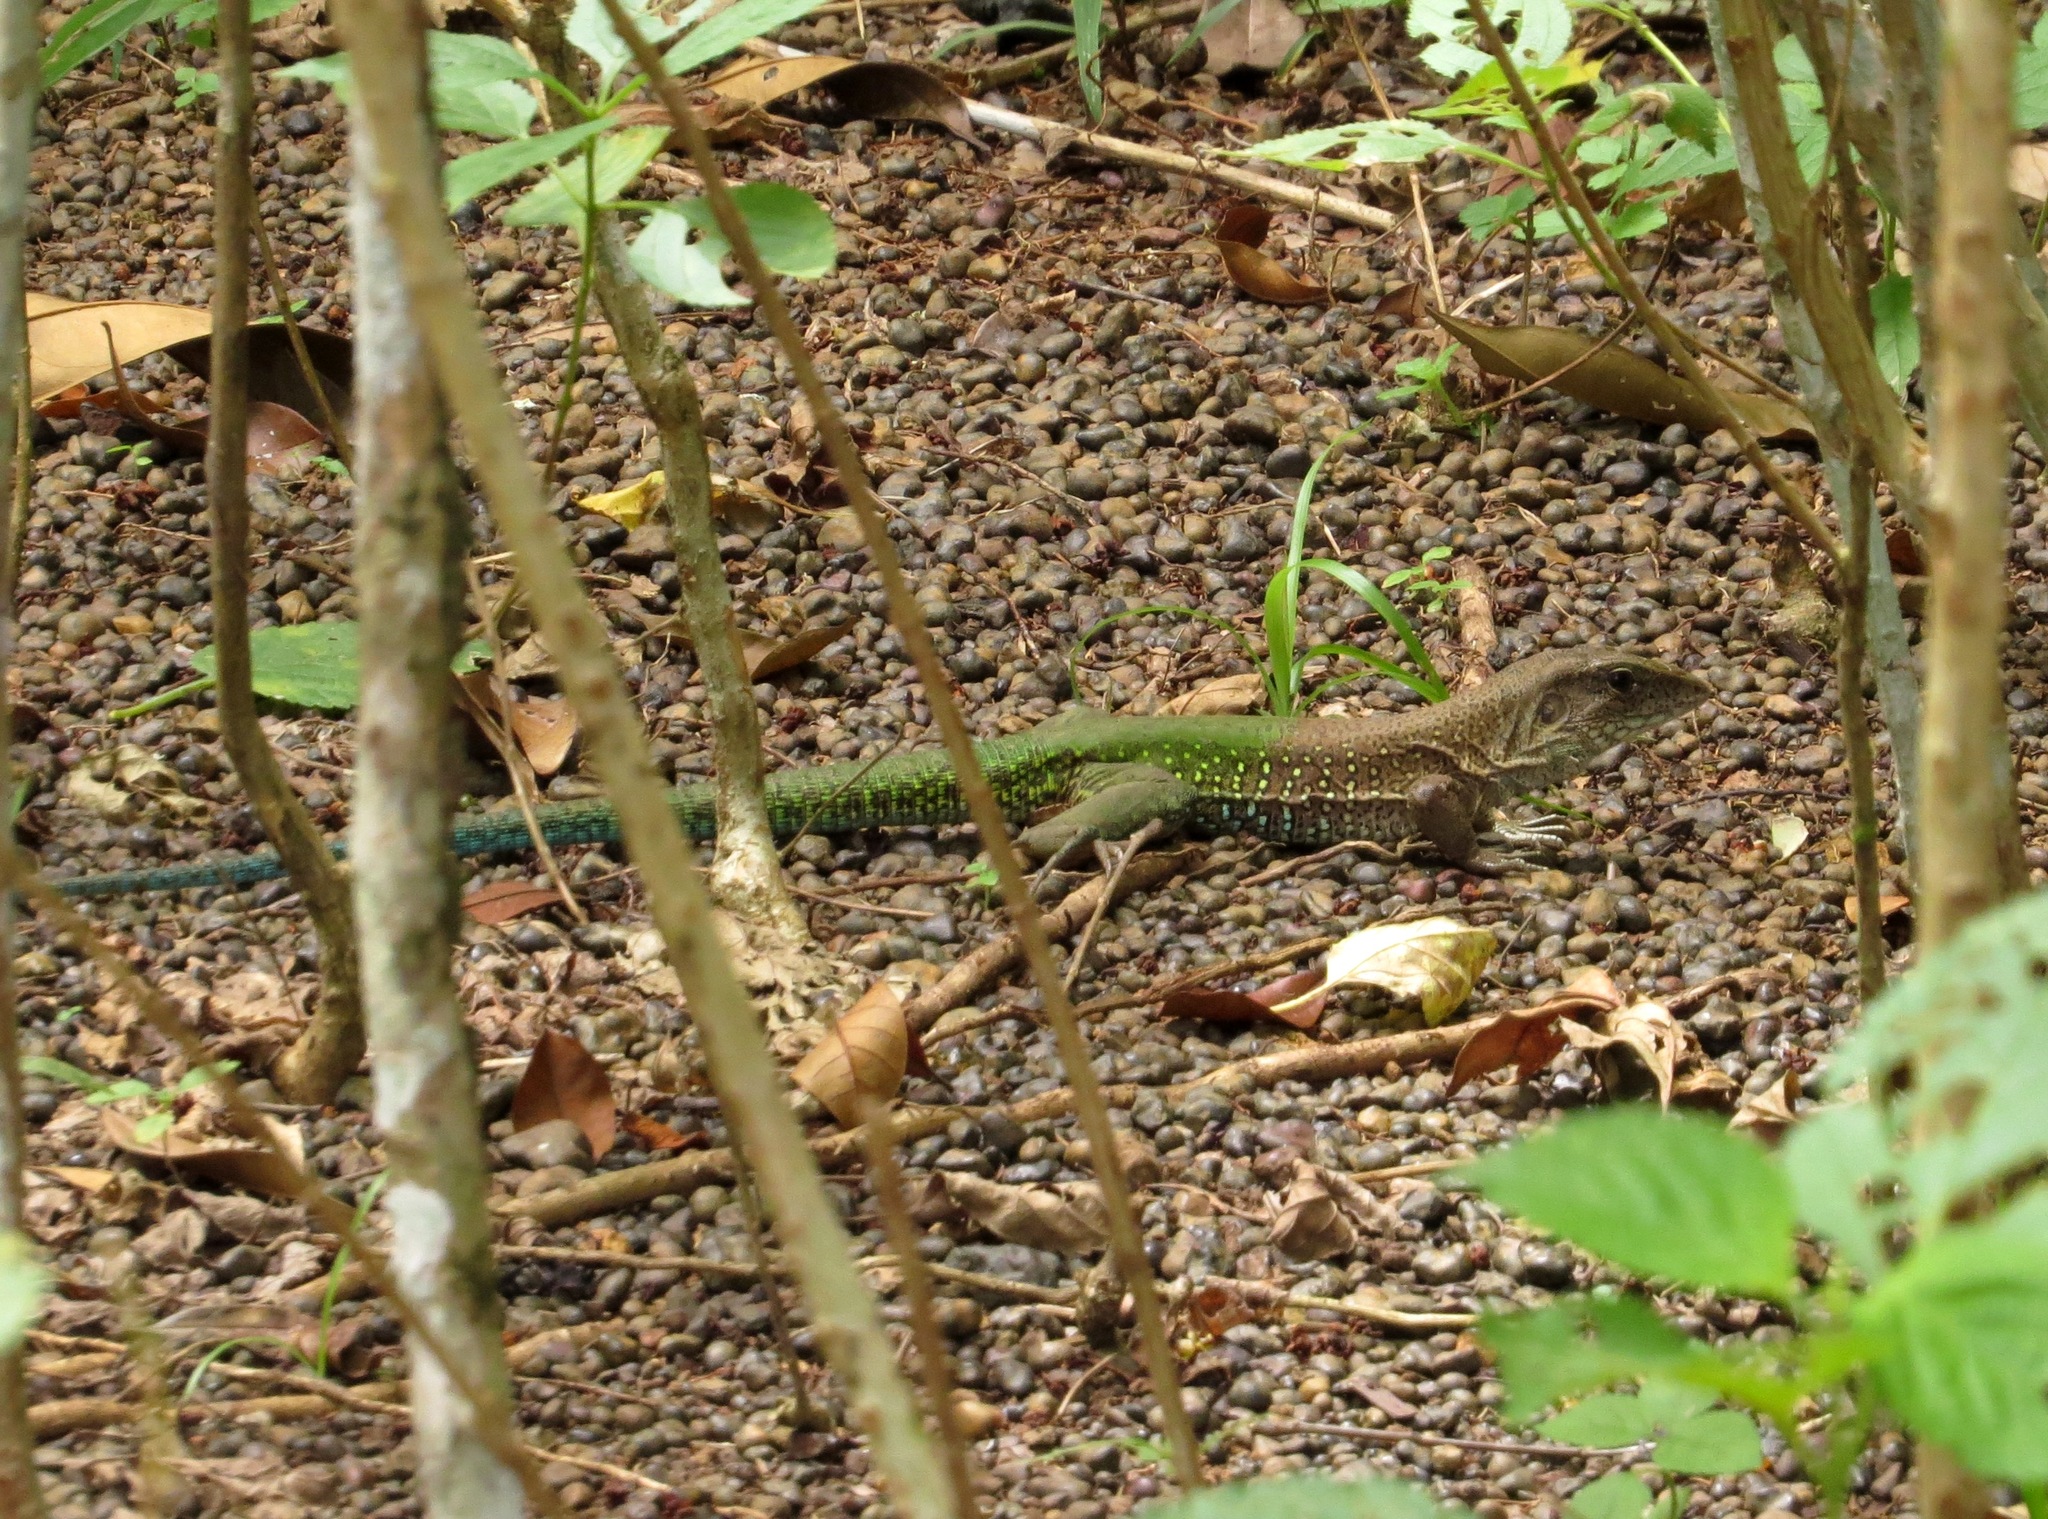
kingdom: Animalia
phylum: Chordata
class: Squamata
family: Teiidae
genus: Ameiva
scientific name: Ameiva ameiva
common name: Giant ameiva
